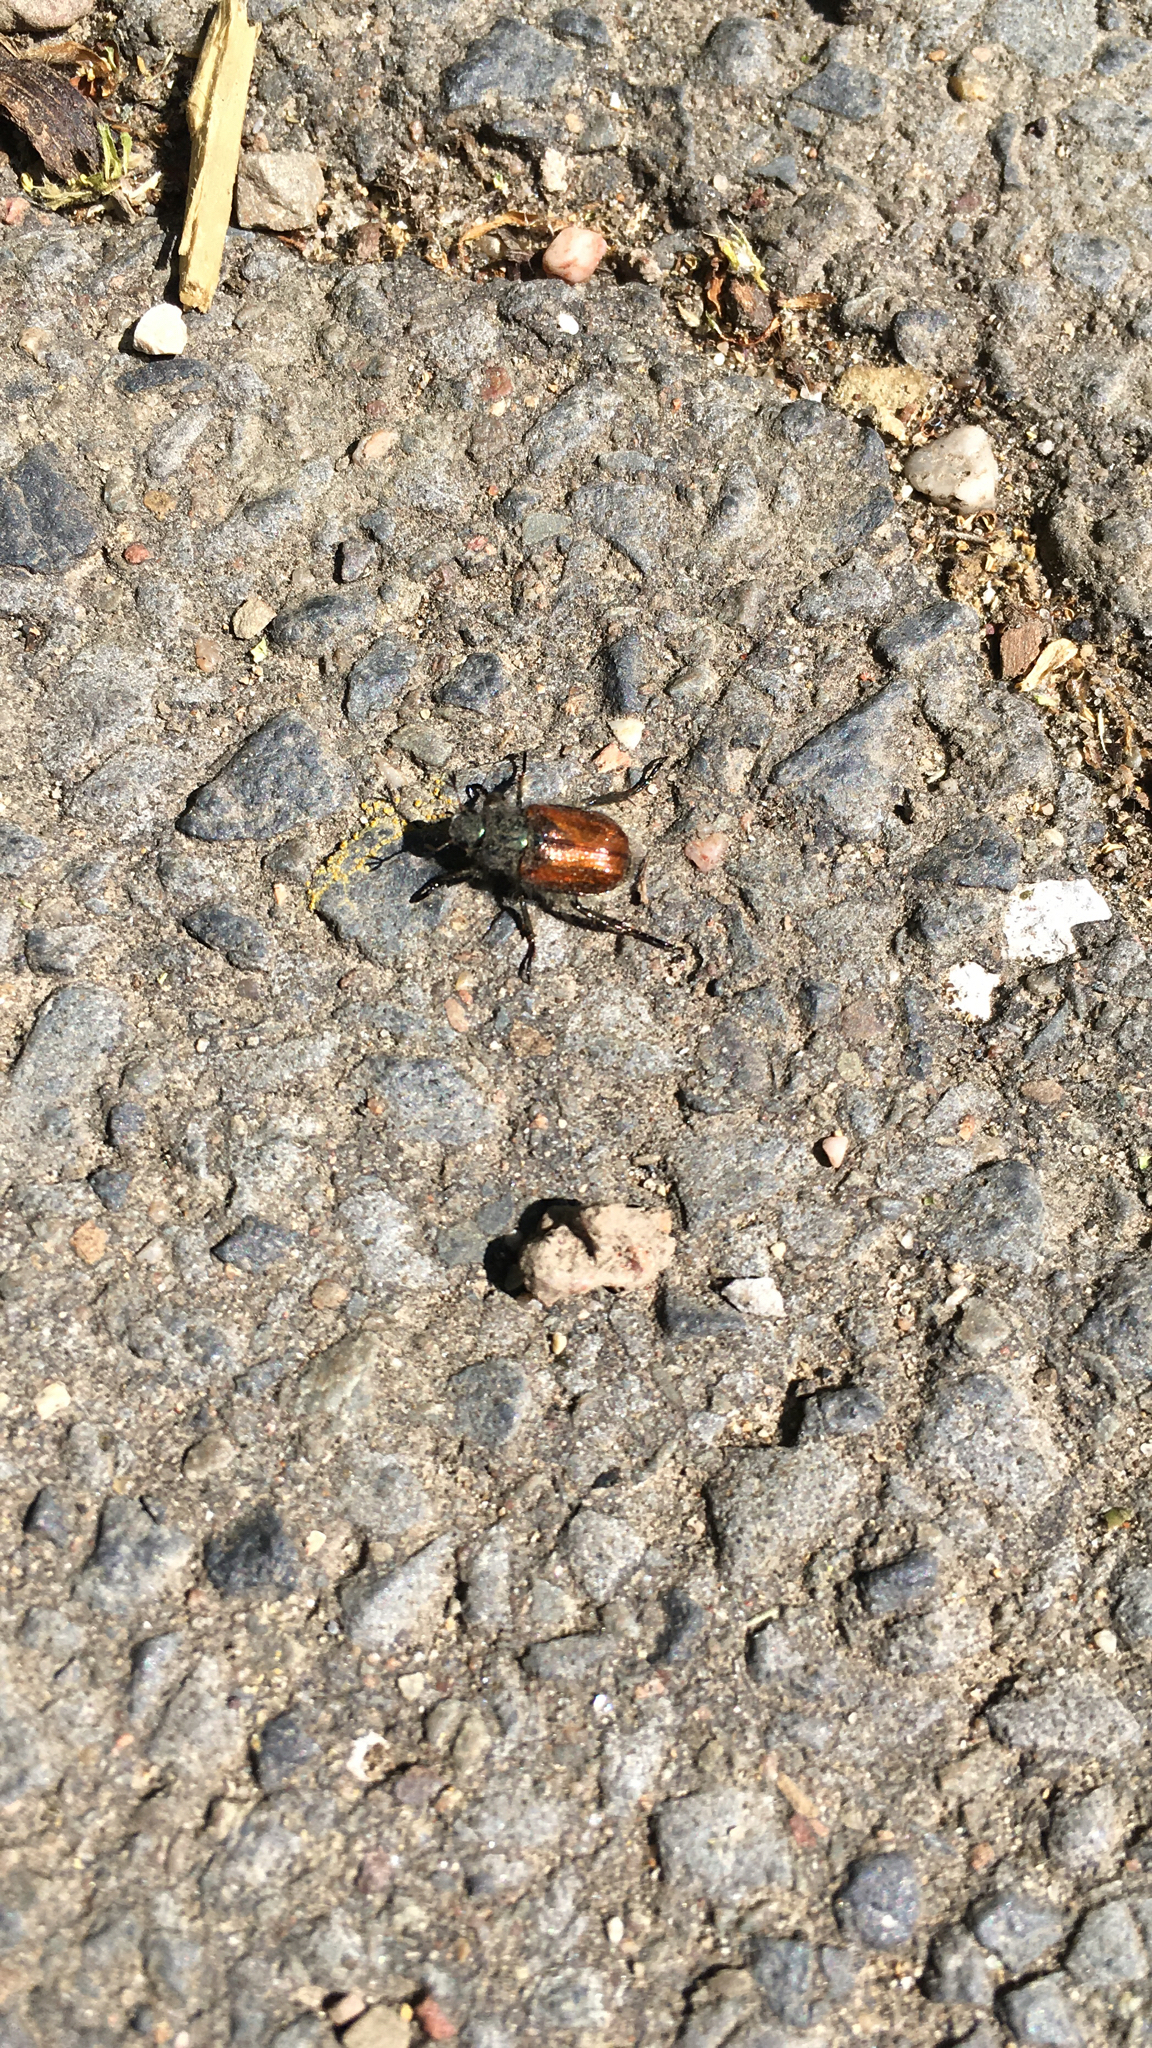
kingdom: Animalia
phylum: Arthropoda
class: Insecta
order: Coleoptera
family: Scarabaeidae
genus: Phyllopertha
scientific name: Phyllopertha horticola
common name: Garden chafer
